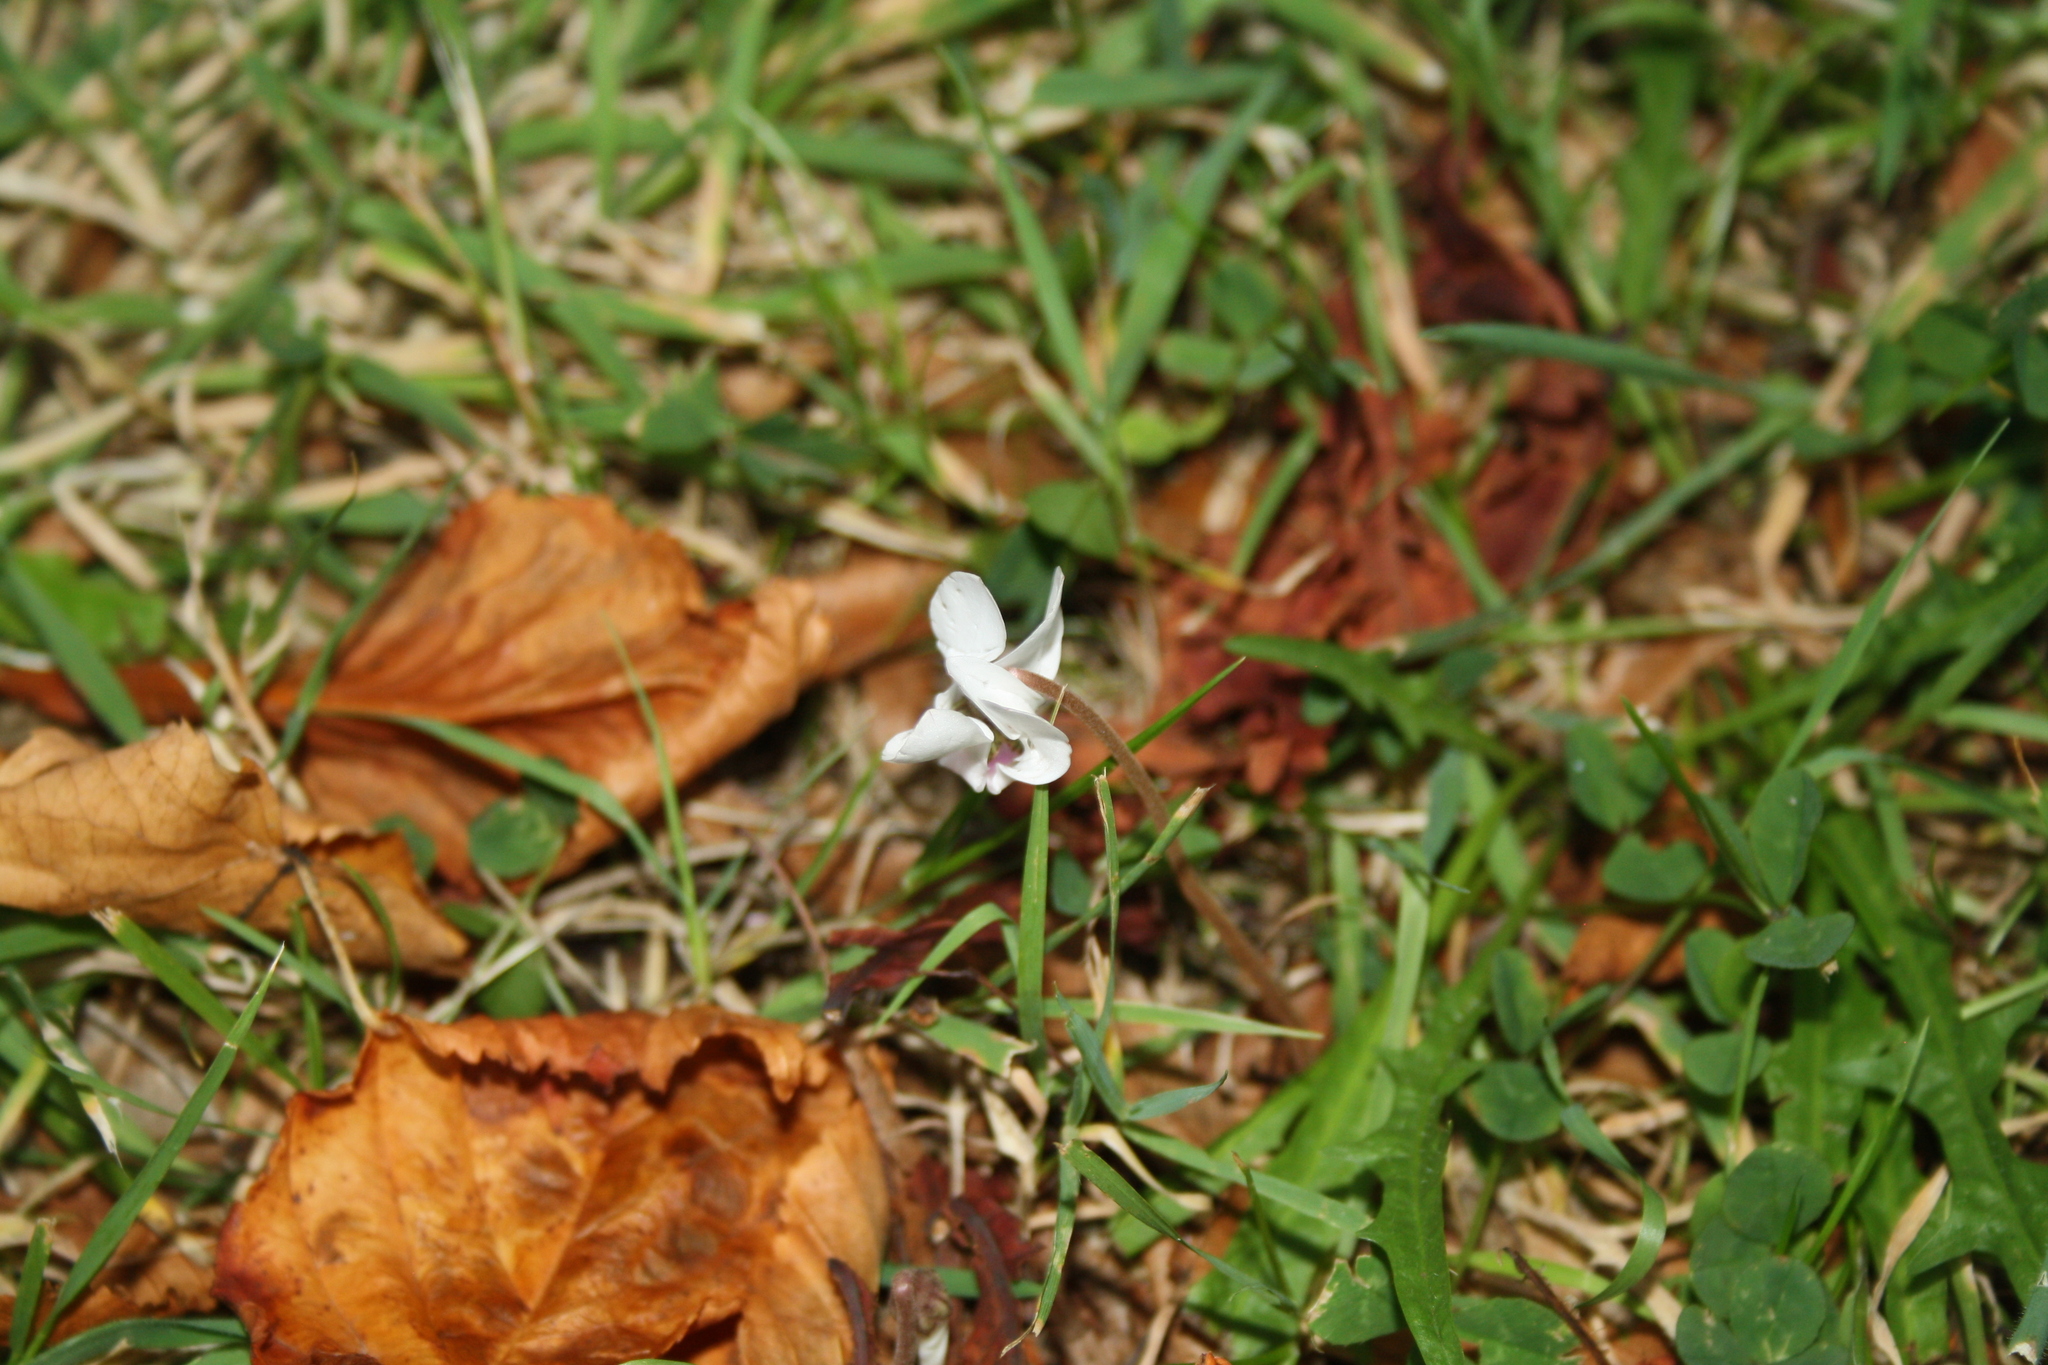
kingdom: Plantae
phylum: Tracheophyta
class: Magnoliopsida
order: Ericales
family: Primulaceae
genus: Cyclamen
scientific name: Cyclamen hederifolium
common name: Sowbread
